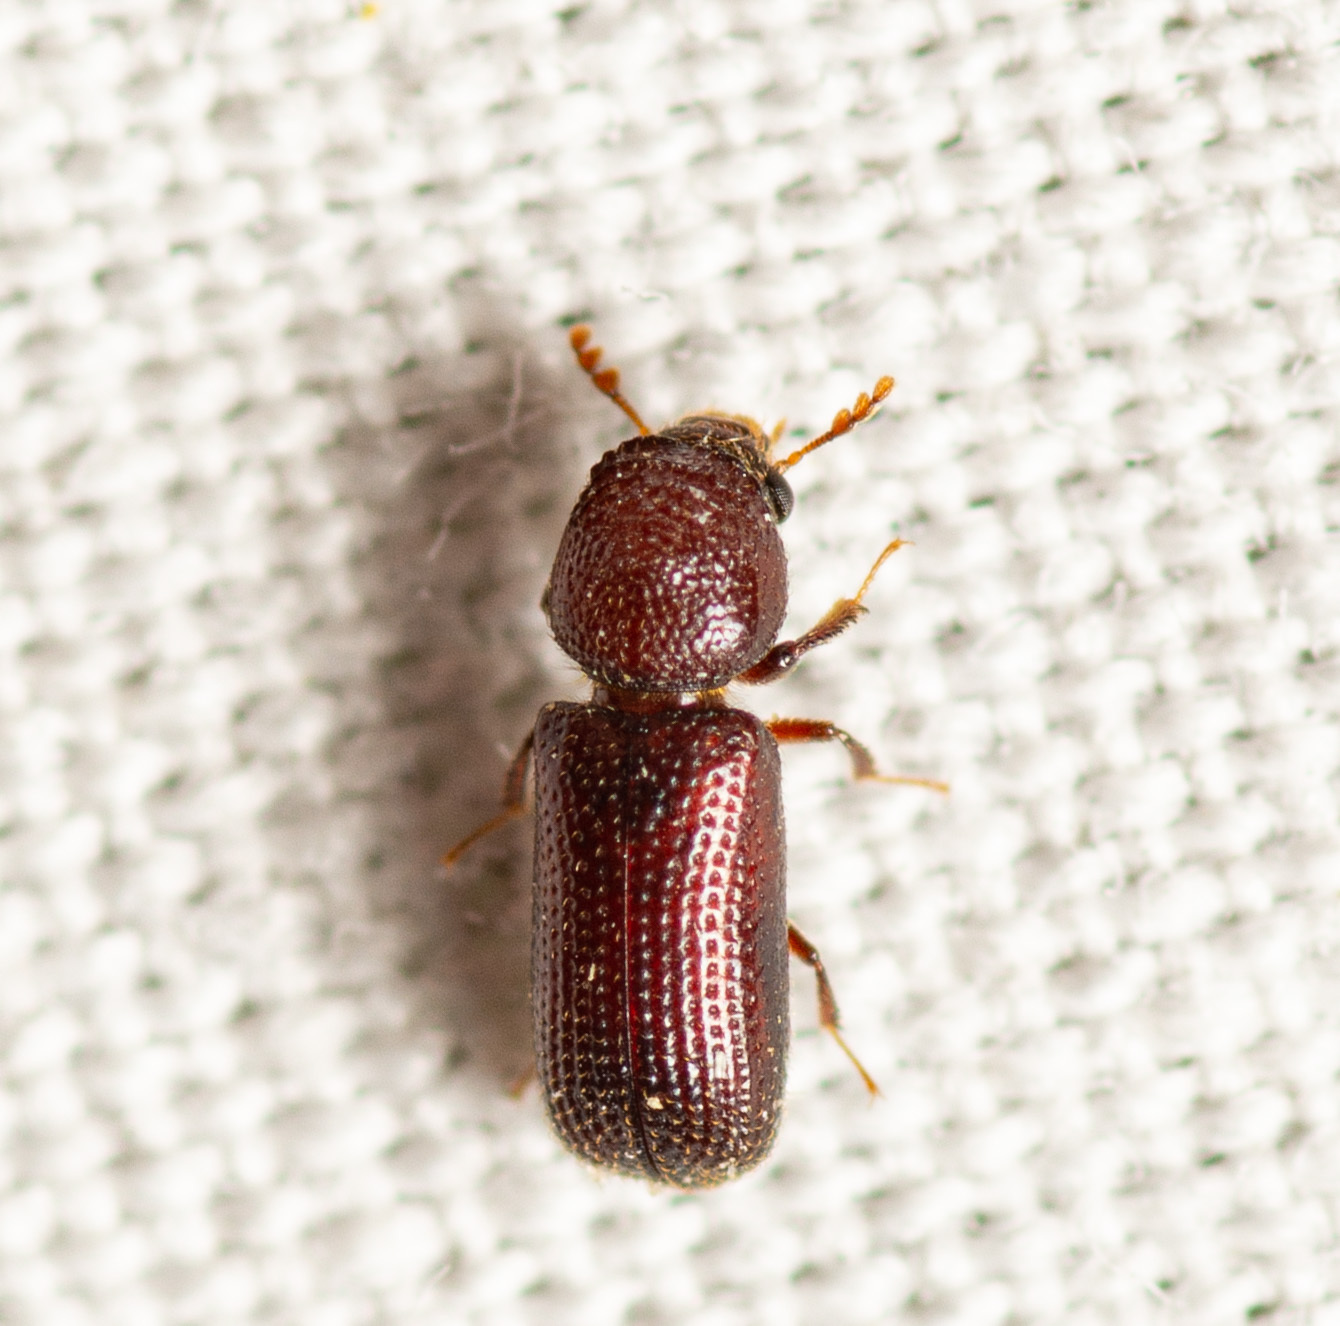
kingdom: Animalia
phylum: Arthropoda
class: Insecta
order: Coleoptera
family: Bostrichidae
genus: Rhyzopertha
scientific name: Rhyzopertha dominica
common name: Lesser grain borer
